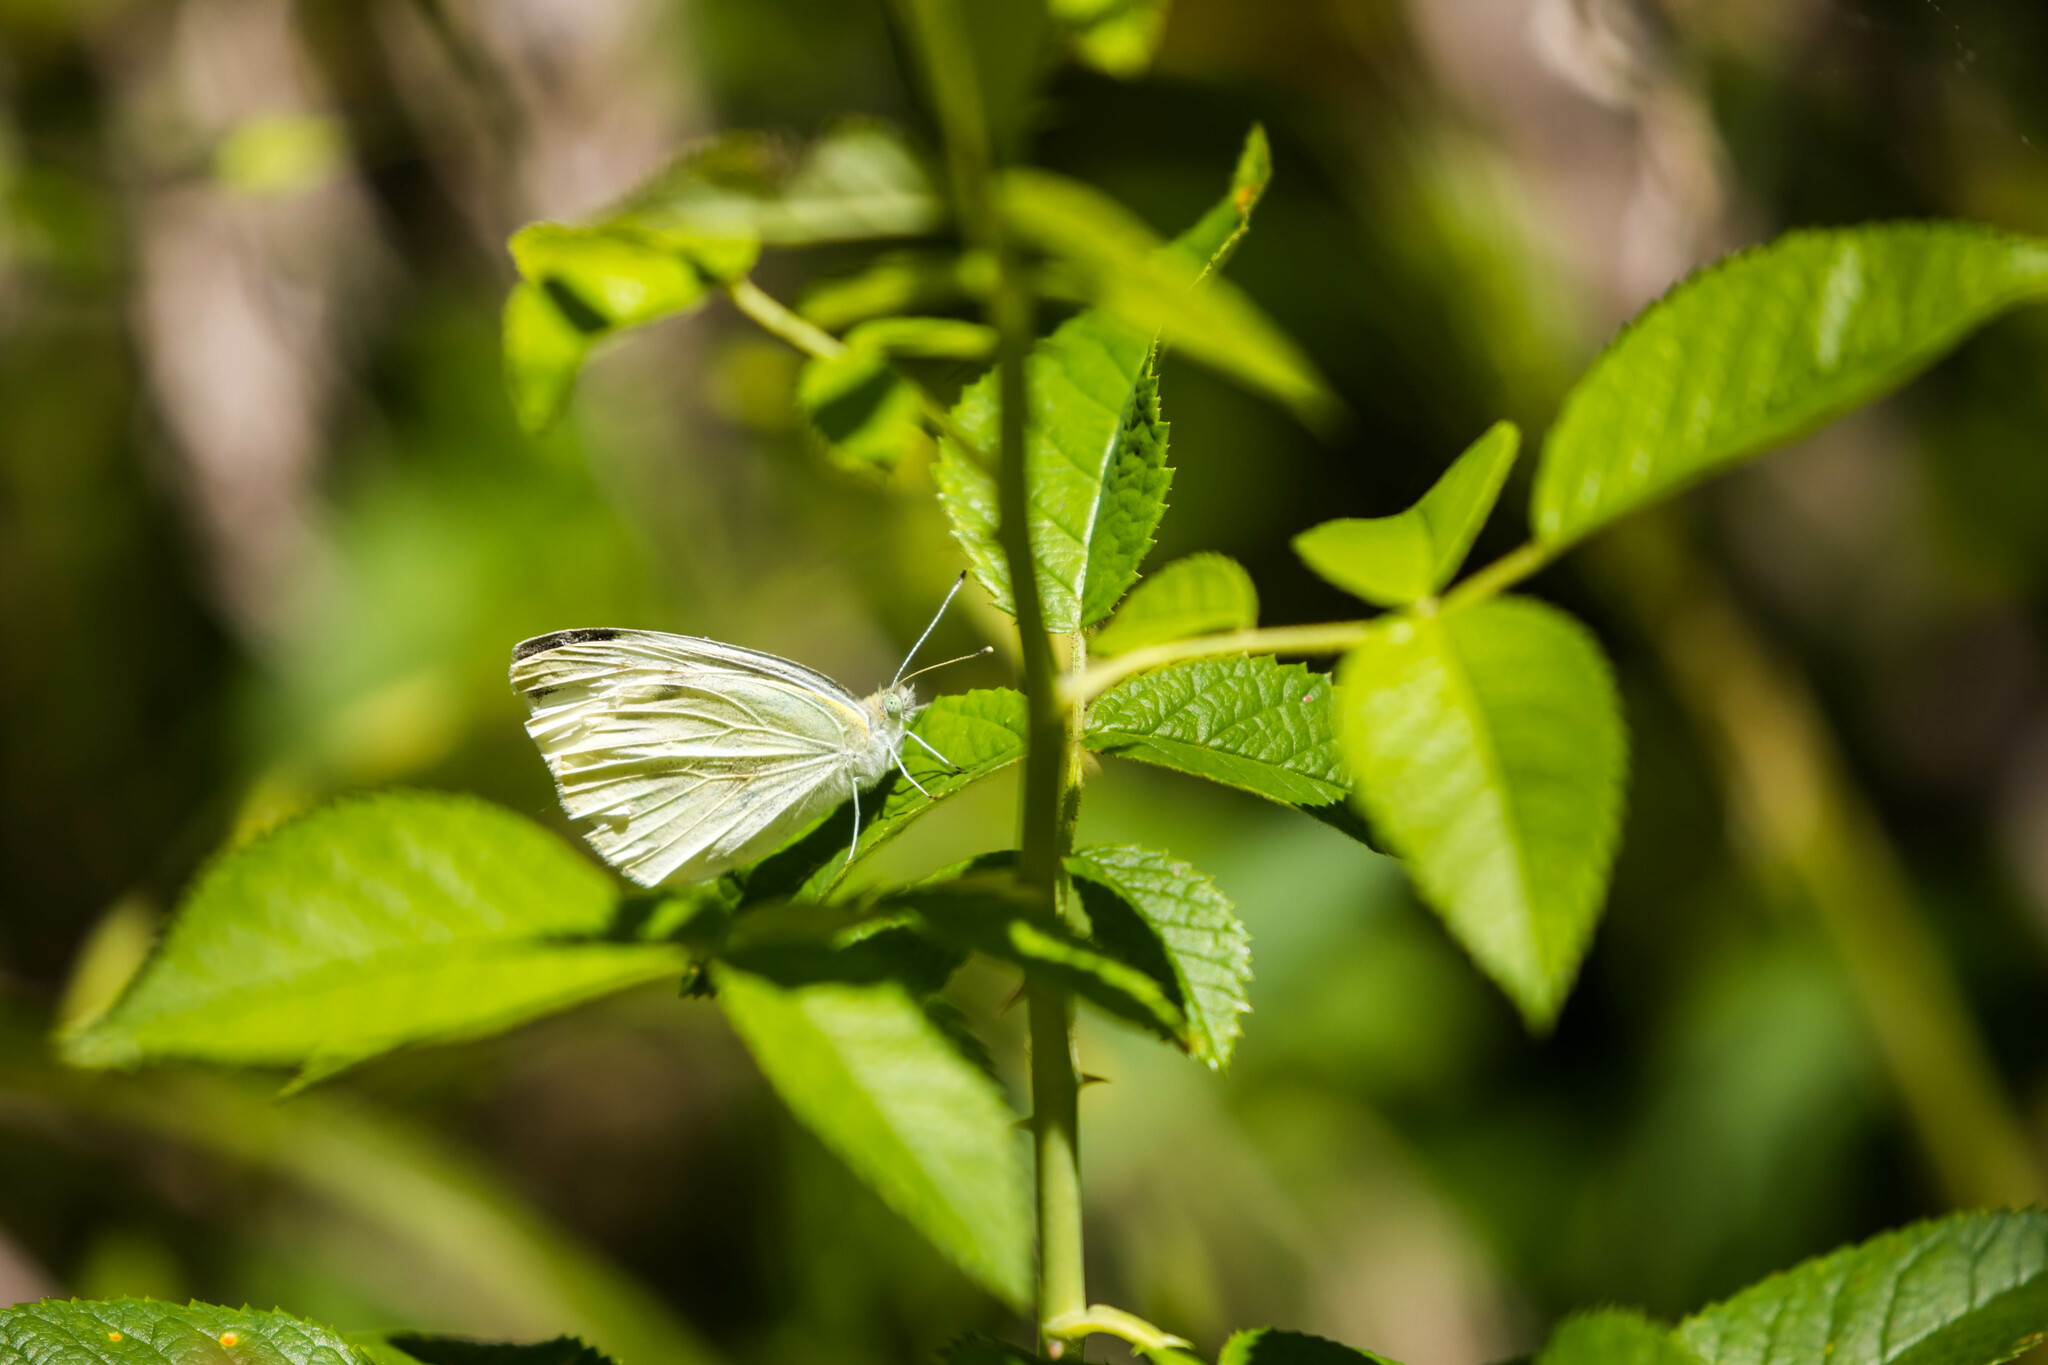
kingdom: Animalia
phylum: Arthropoda
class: Insecta
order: Lepidoptera
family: Pieridae
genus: Pieris
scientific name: Pieris rapae
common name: Small white
